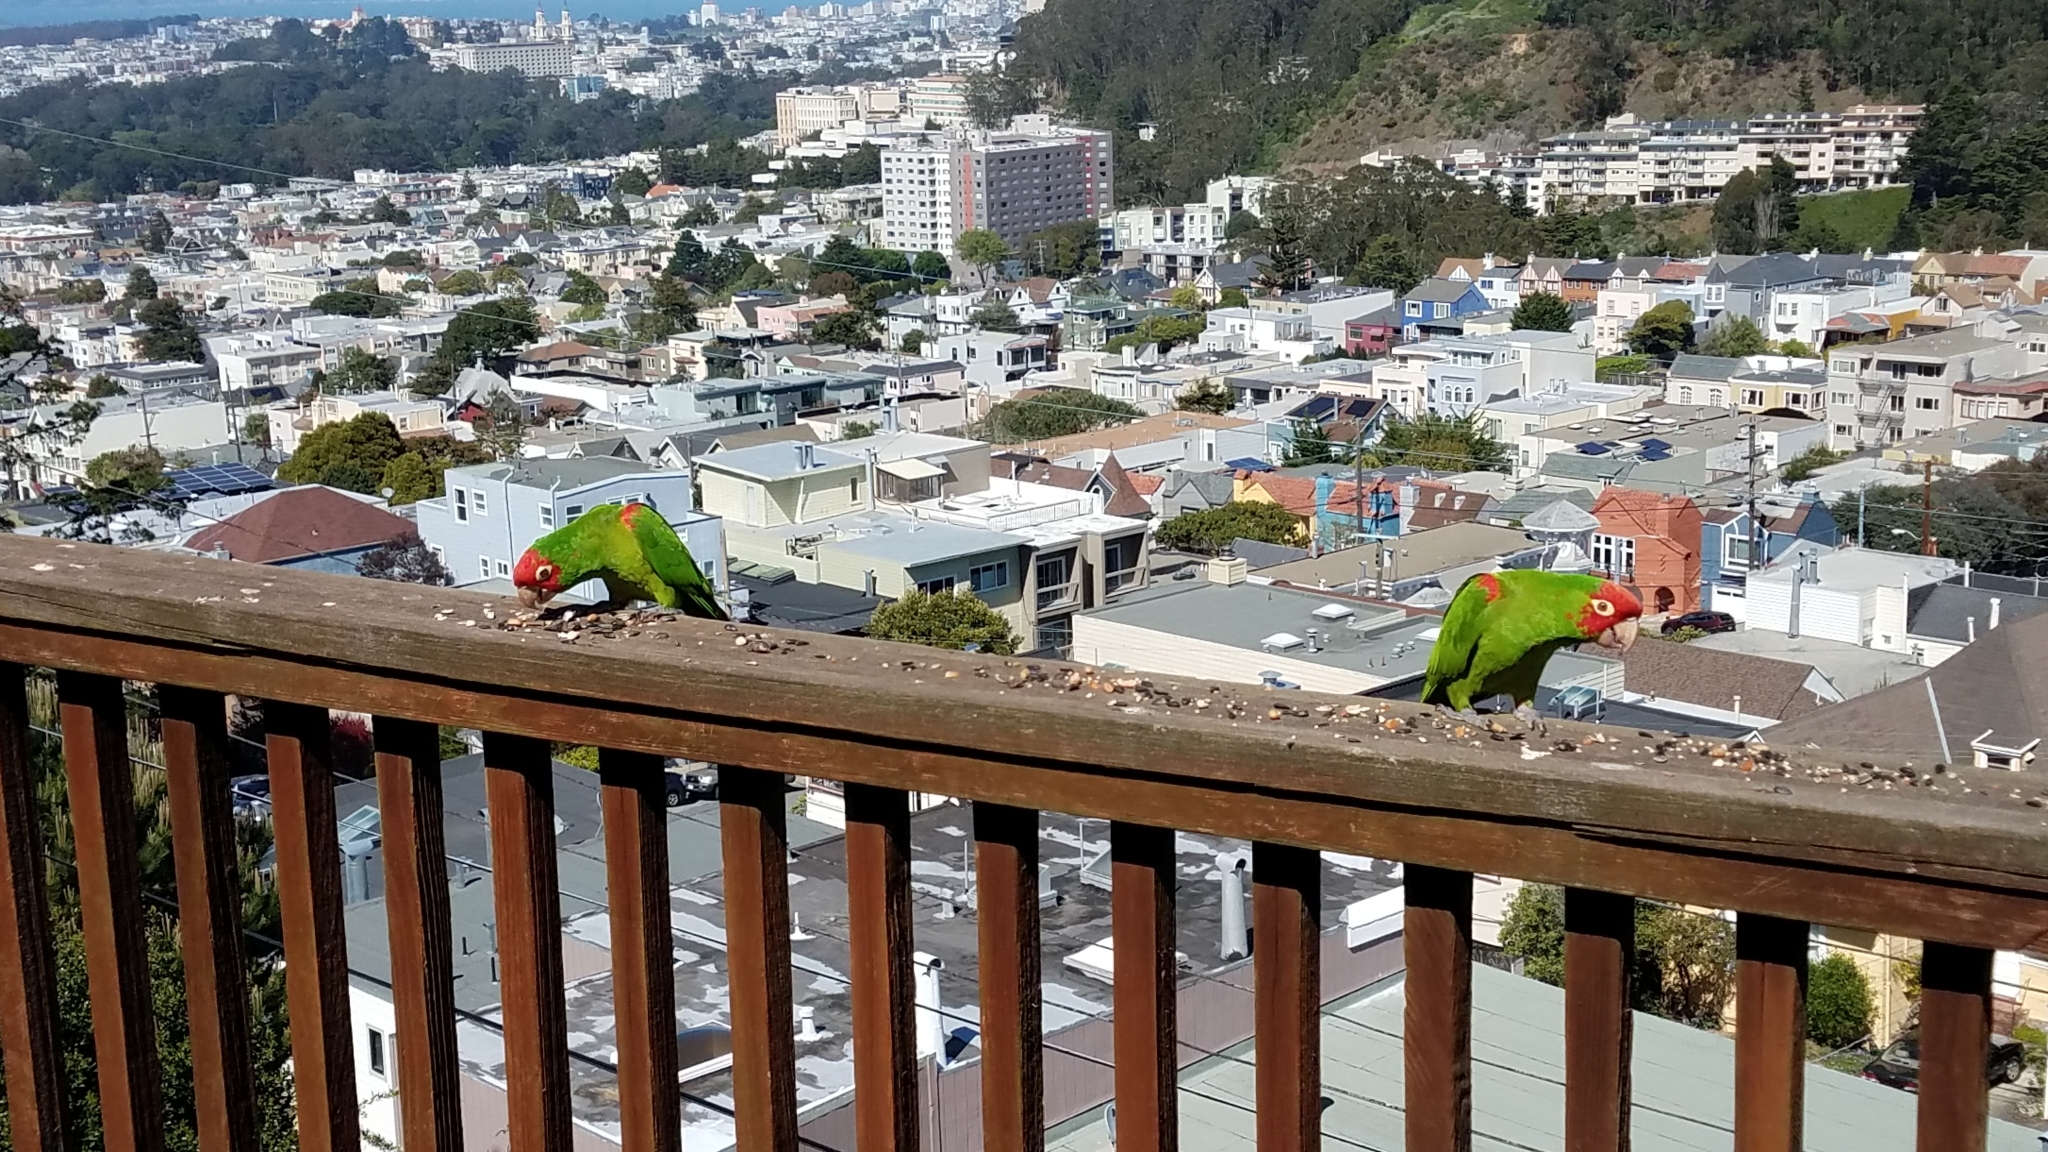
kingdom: Animalia
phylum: Chordata
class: Aves
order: Psittaciformes
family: Psittacidae
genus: Aratinga
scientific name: Aratinga erythrogenys
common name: Red-masked parakeet
